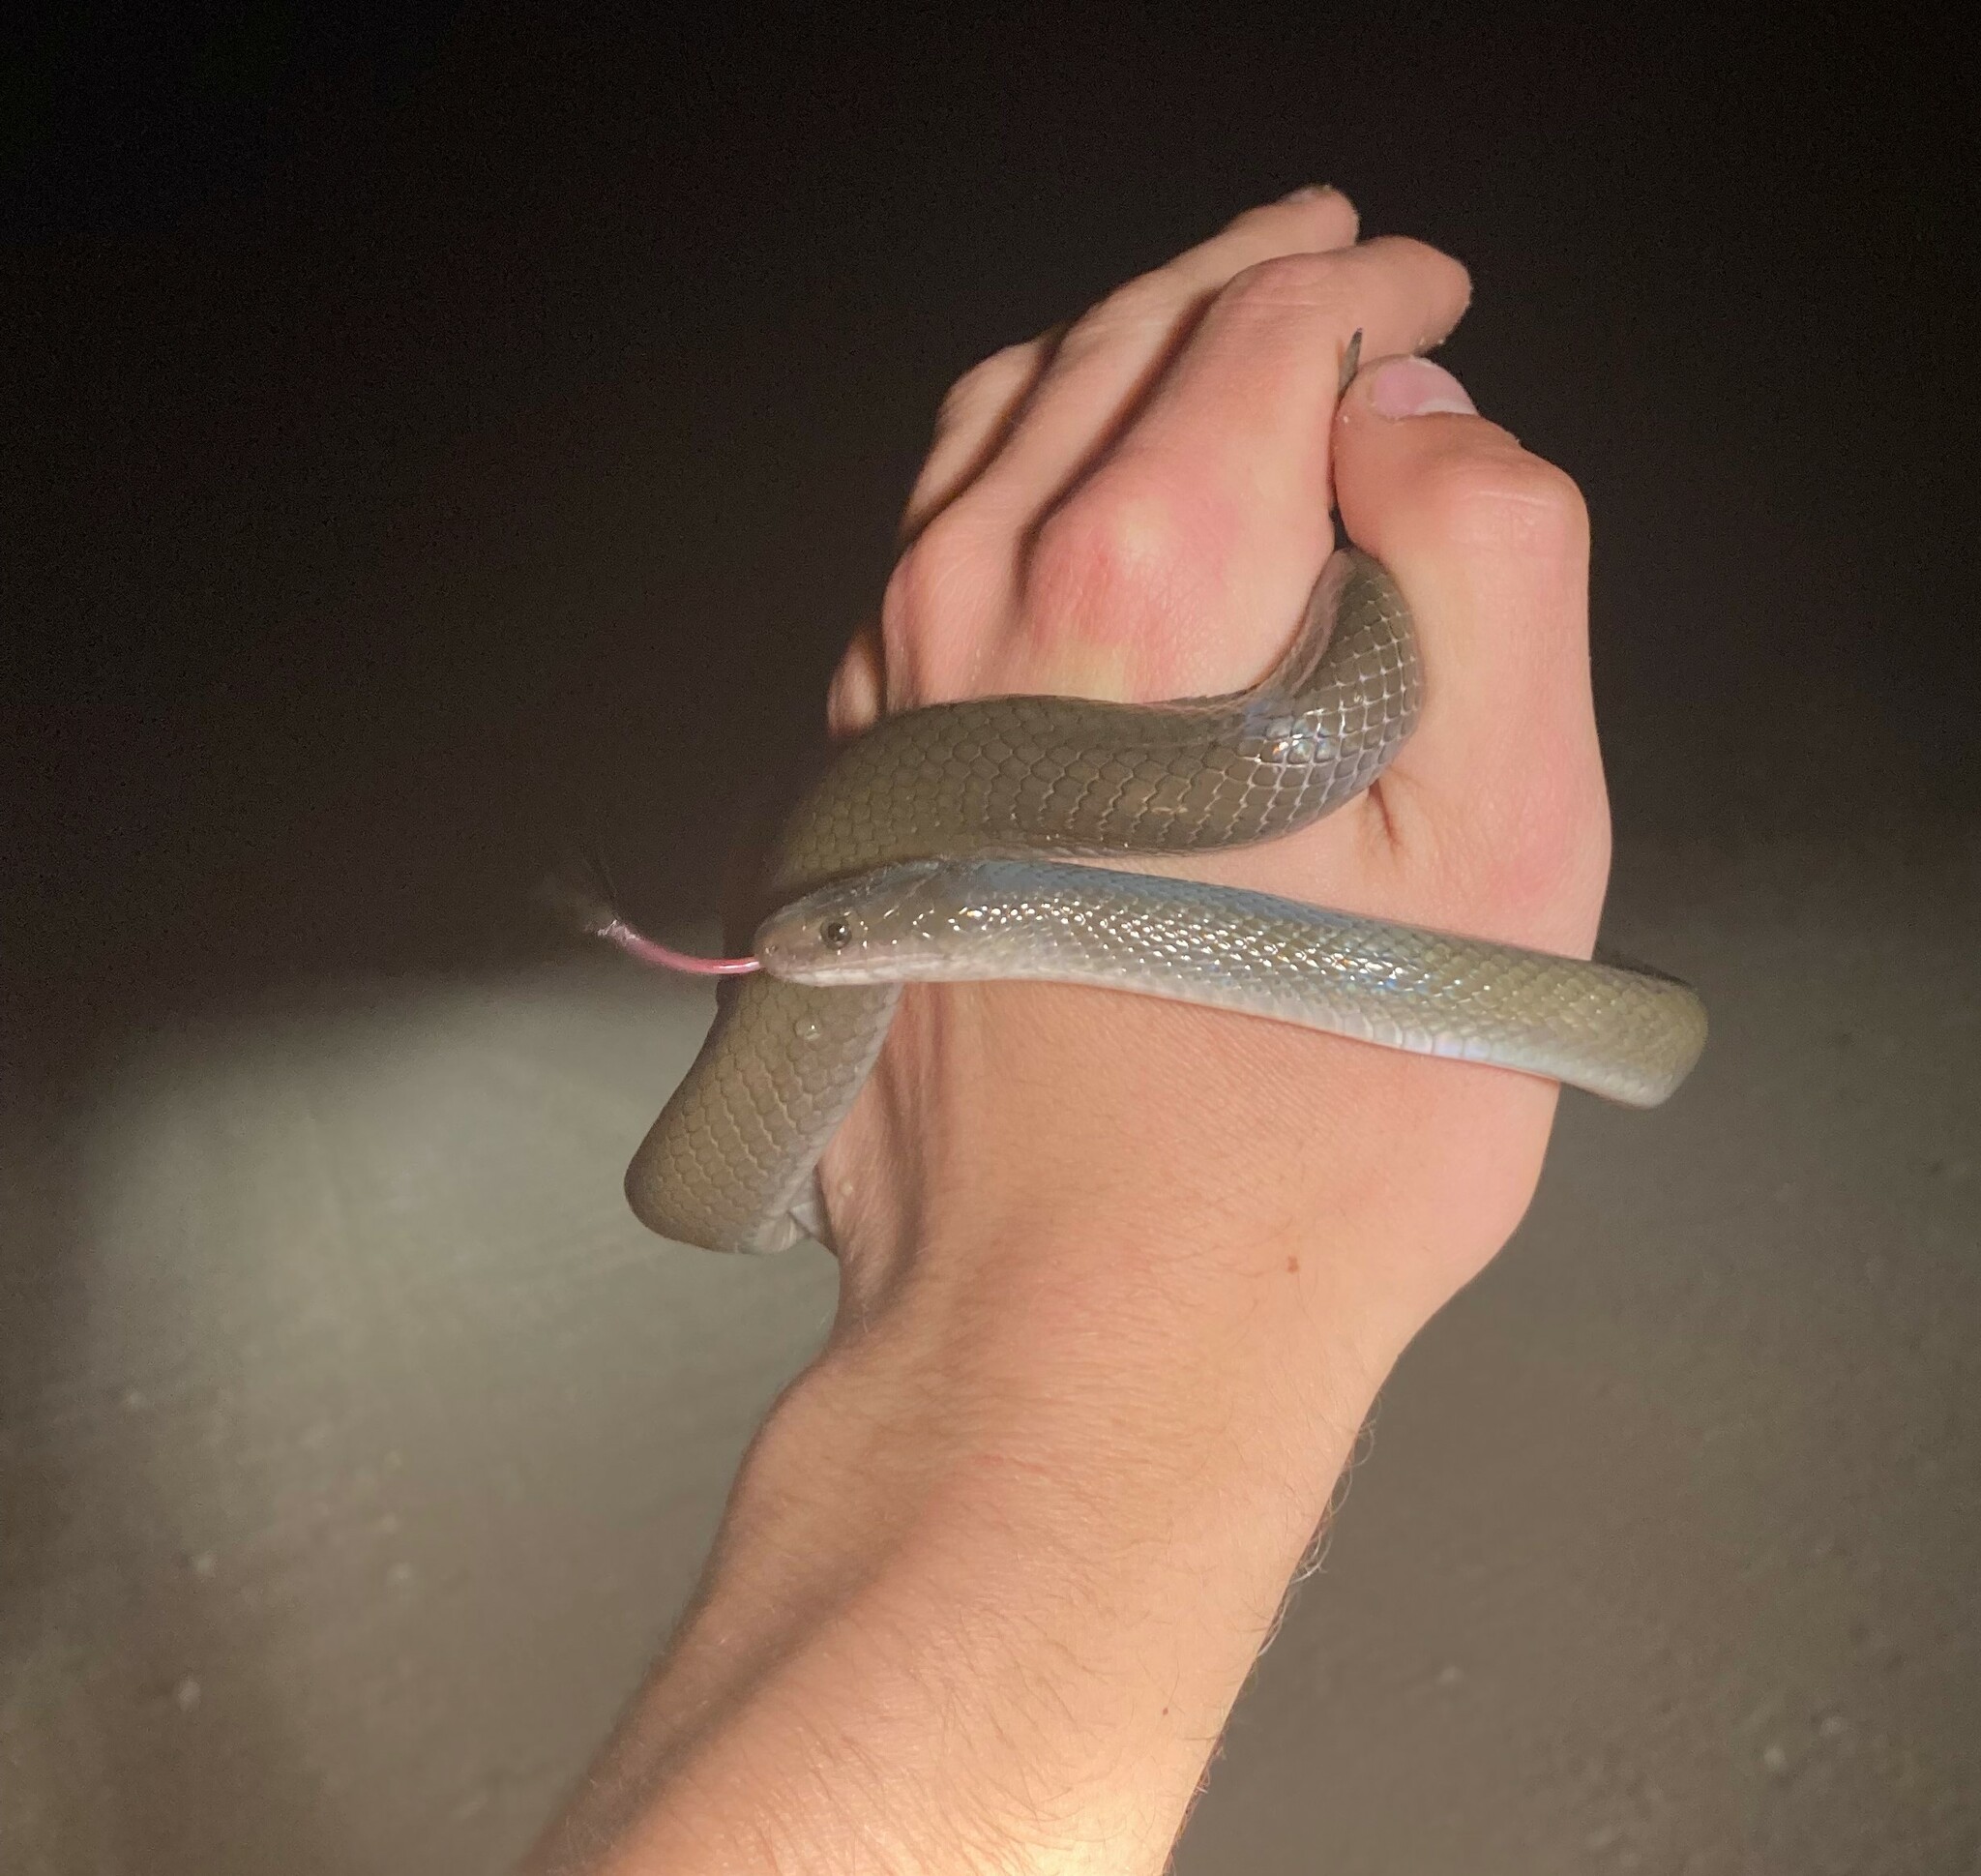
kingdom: Animalia
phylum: Chordata
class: Squamata
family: Lamprophiidae
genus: Lycodonomorphus
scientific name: Lycodonomorphus inornatus
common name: Black house snake
